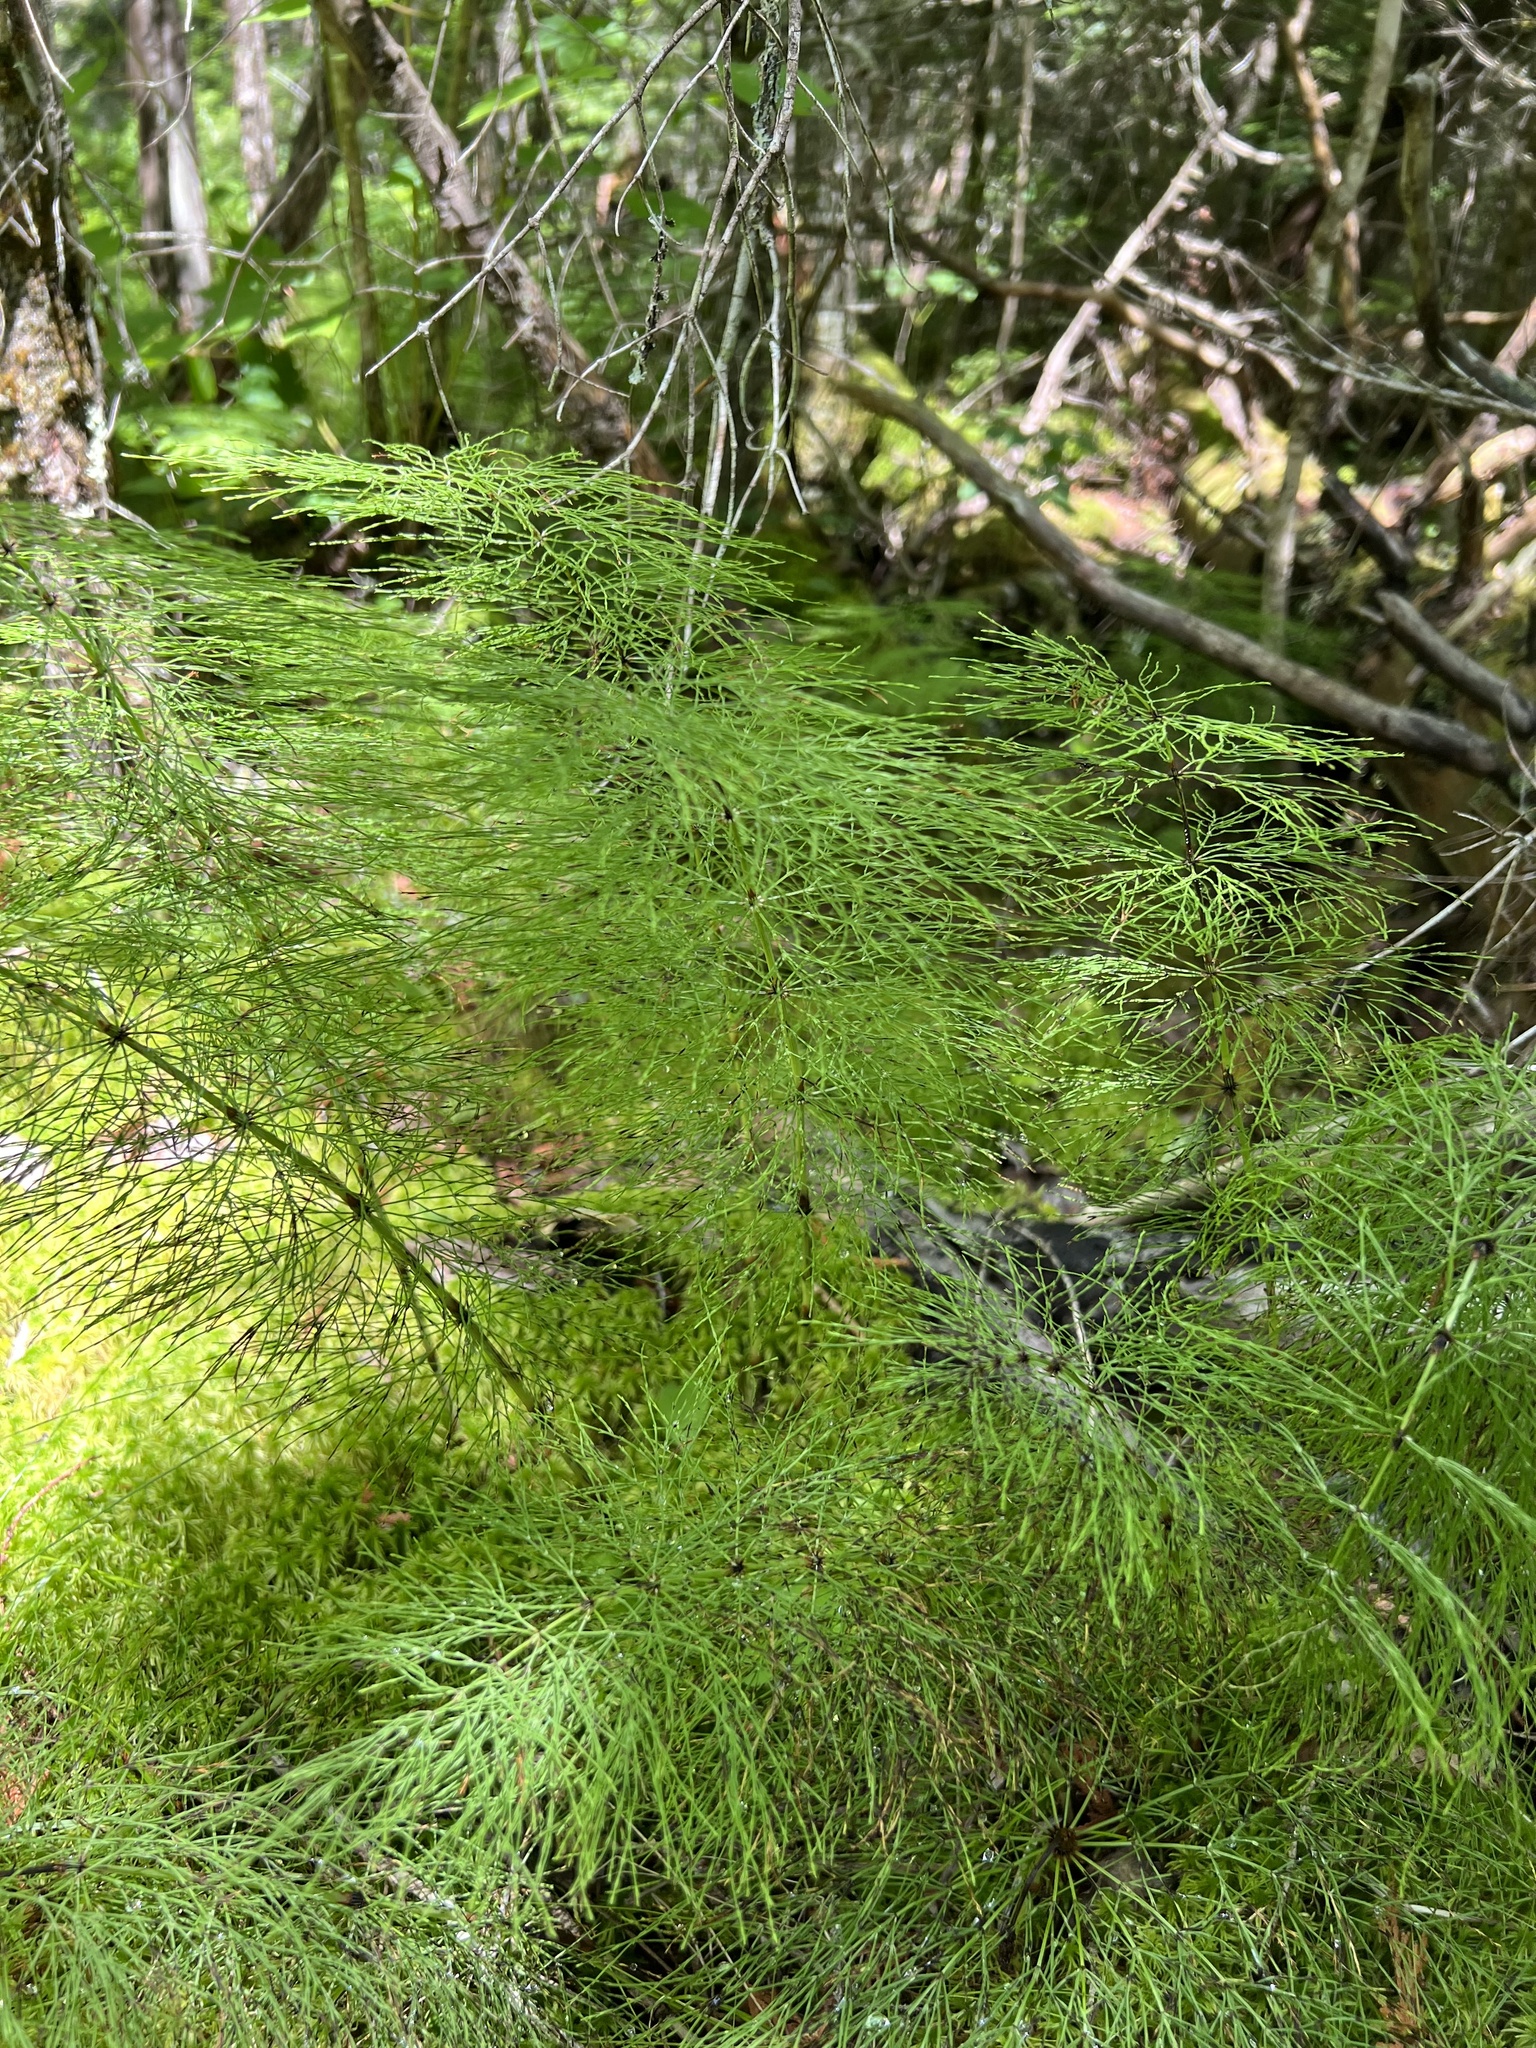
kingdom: Plantae
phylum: Tracheophyta
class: Polypodiopsida
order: Equisetales
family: Equisetaceae
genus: Equisetum
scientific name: Equisetum sylvaticum
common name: Wood horsetail
